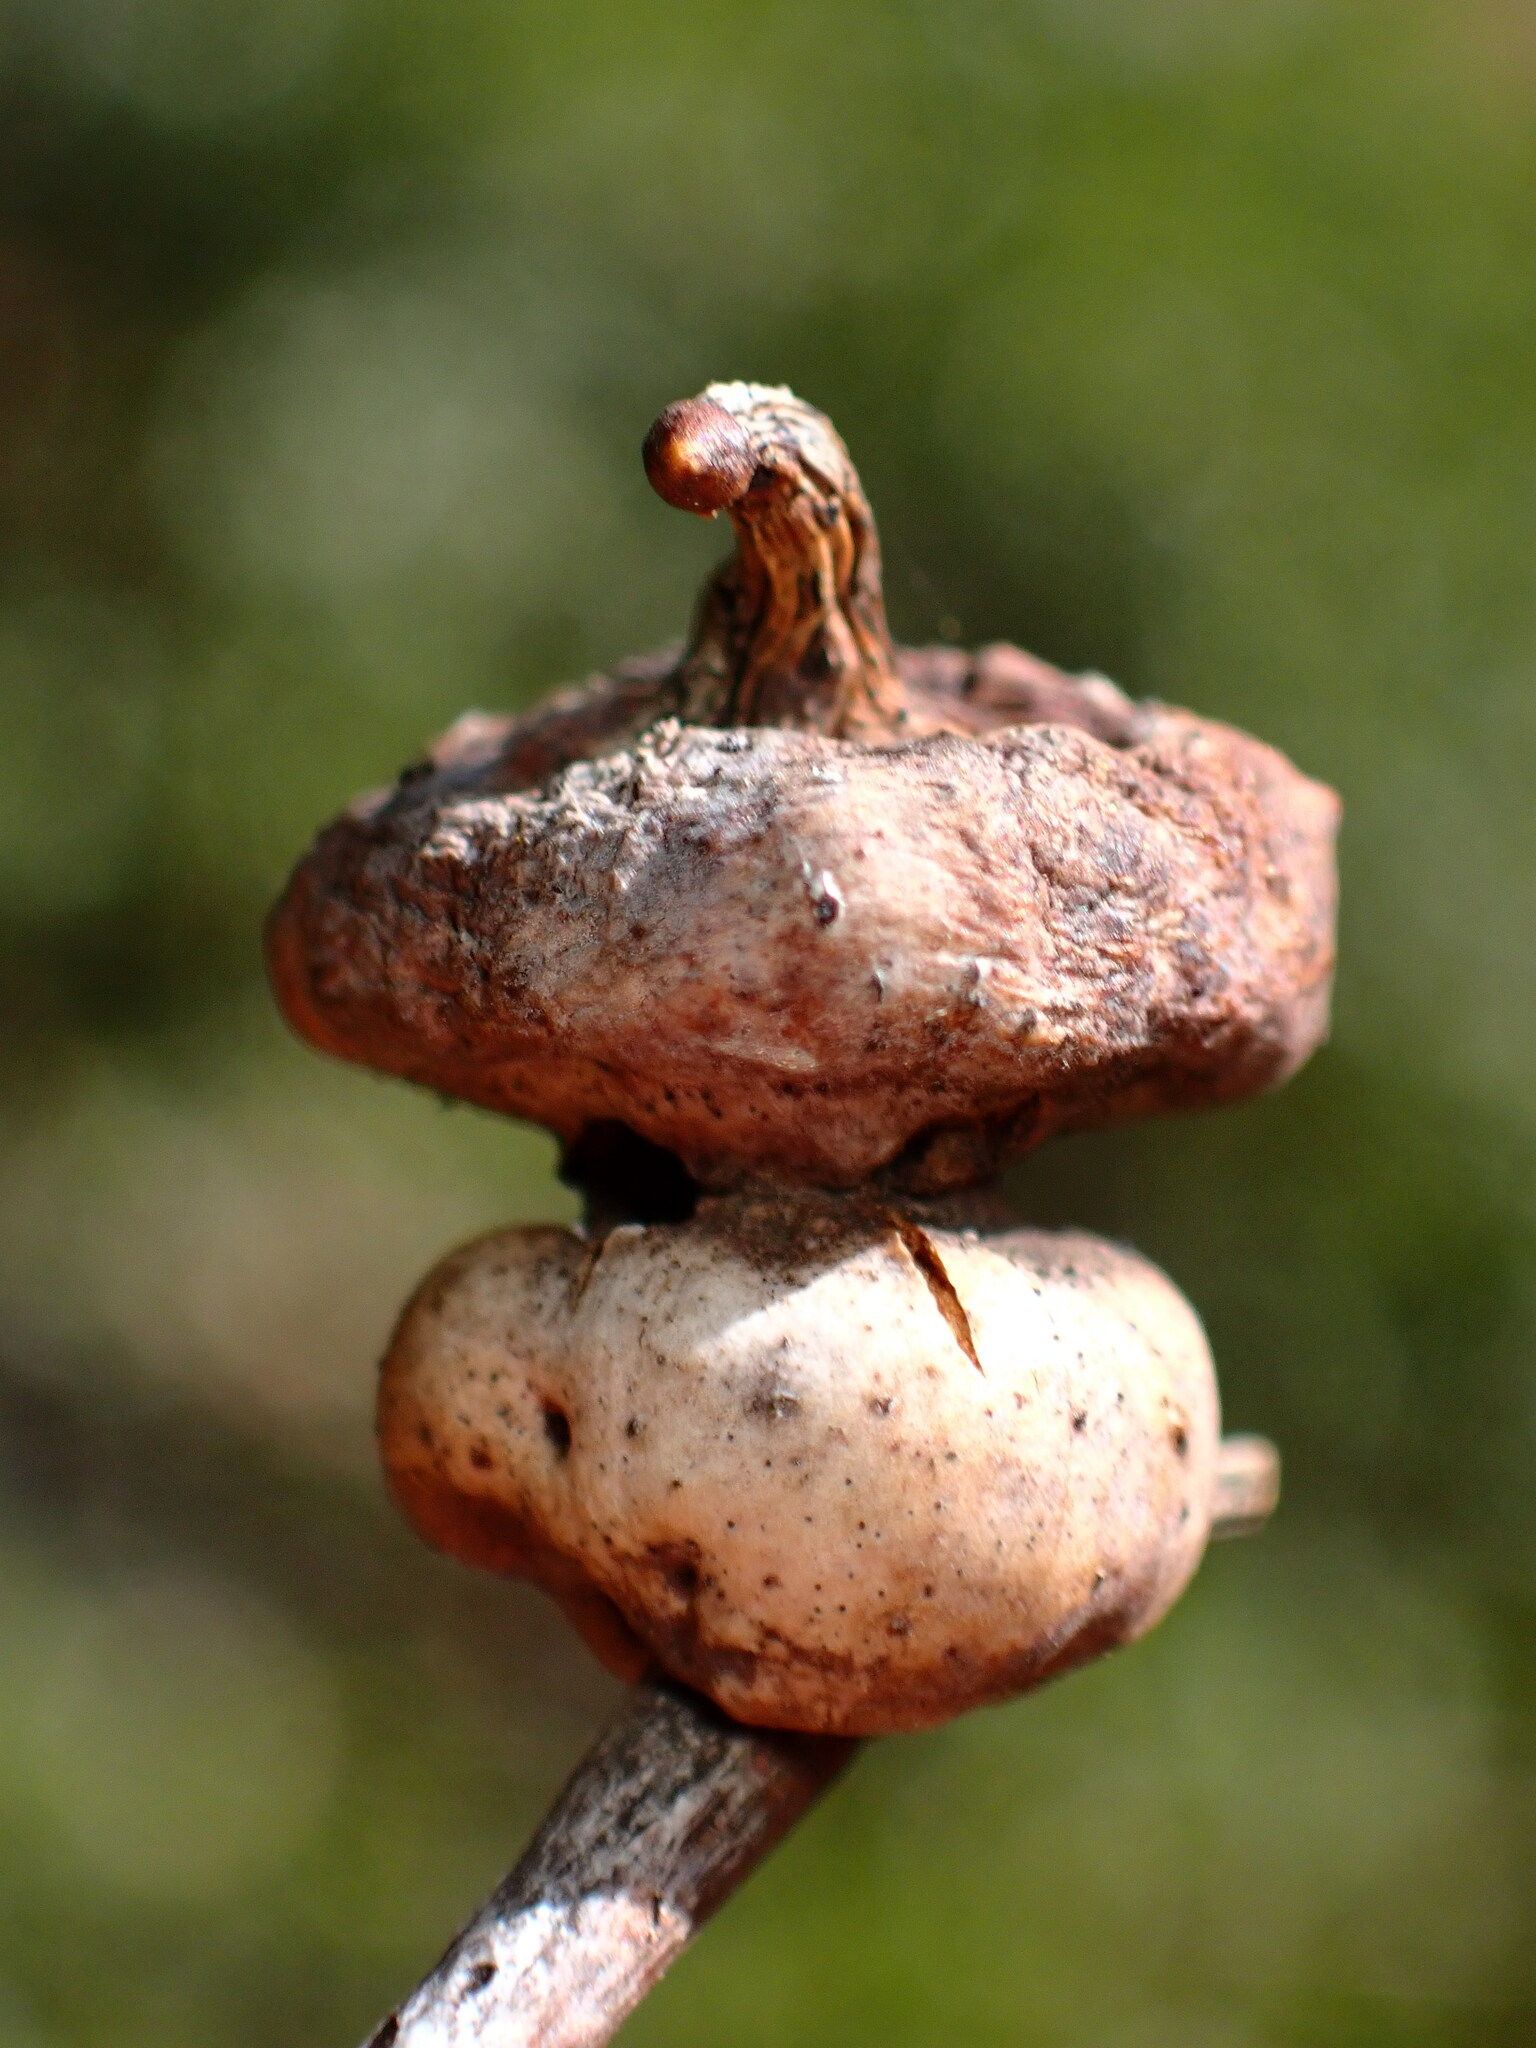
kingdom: Animalia
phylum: Arthropoda
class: Insecta
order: Hymenoptera
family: Cynipidae
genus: Heteroecus
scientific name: Heteroecus
